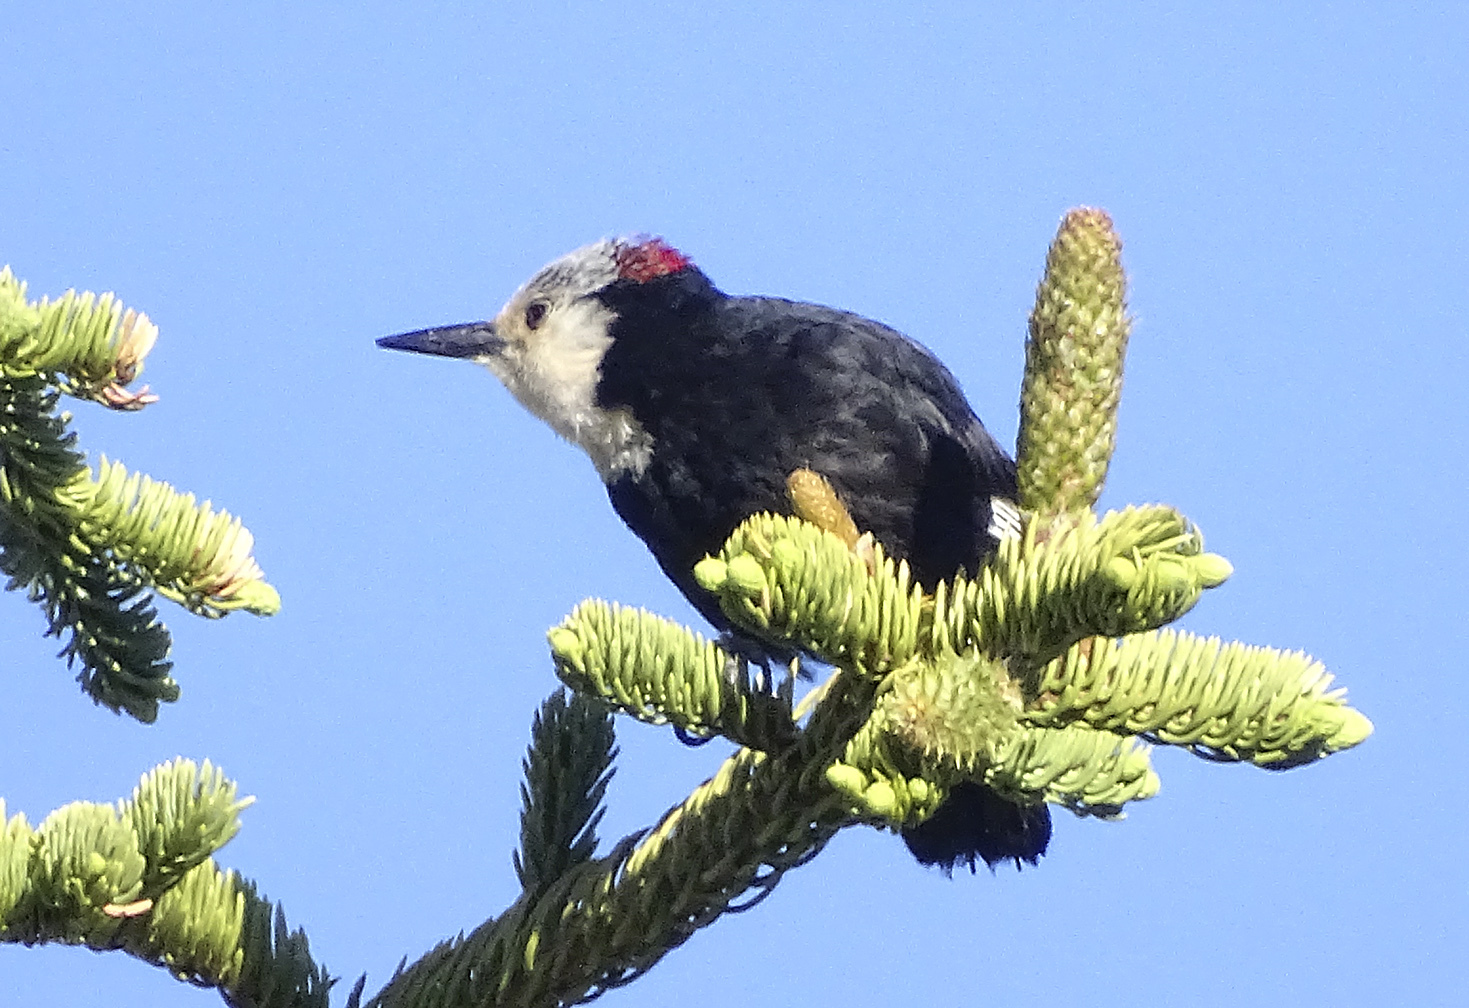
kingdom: Animalia
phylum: Chordata
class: Aves
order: Piciformes
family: Picidae
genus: Leuconotopicus
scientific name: Leuconotopicus albolarvatus
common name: White-headed woodpecker
